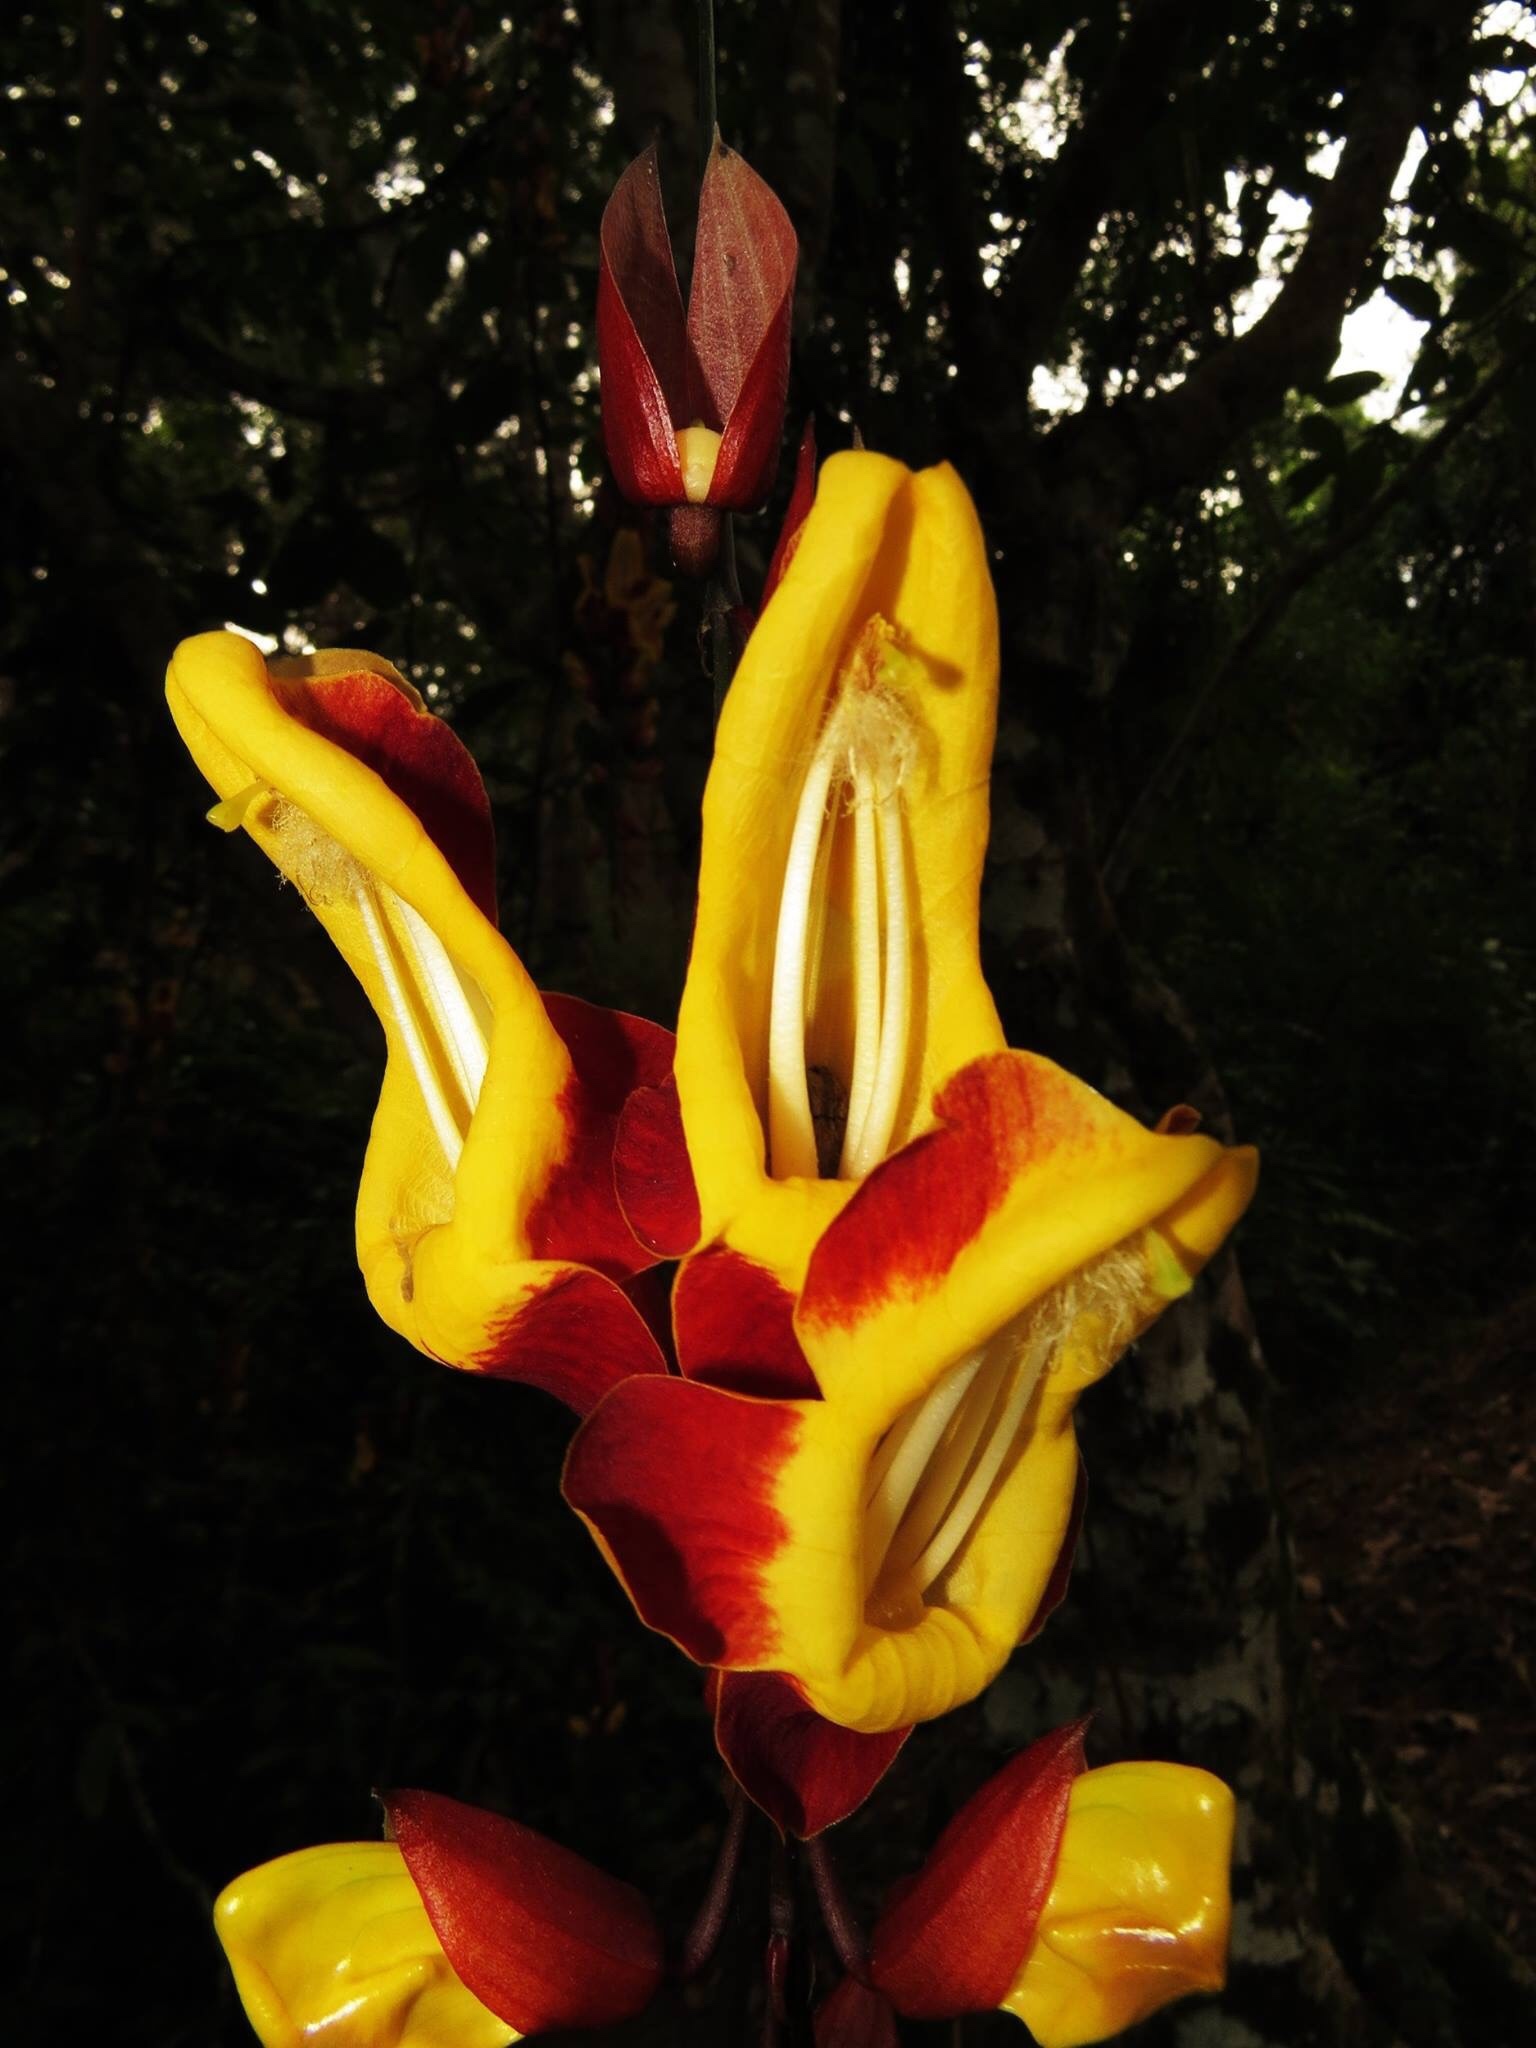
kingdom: Plantae
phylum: Tracheophyta
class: Magnoliopsida
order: Lamiales
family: Acanthaceae
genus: Thunbergia
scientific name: Thunbergia mysorensis
